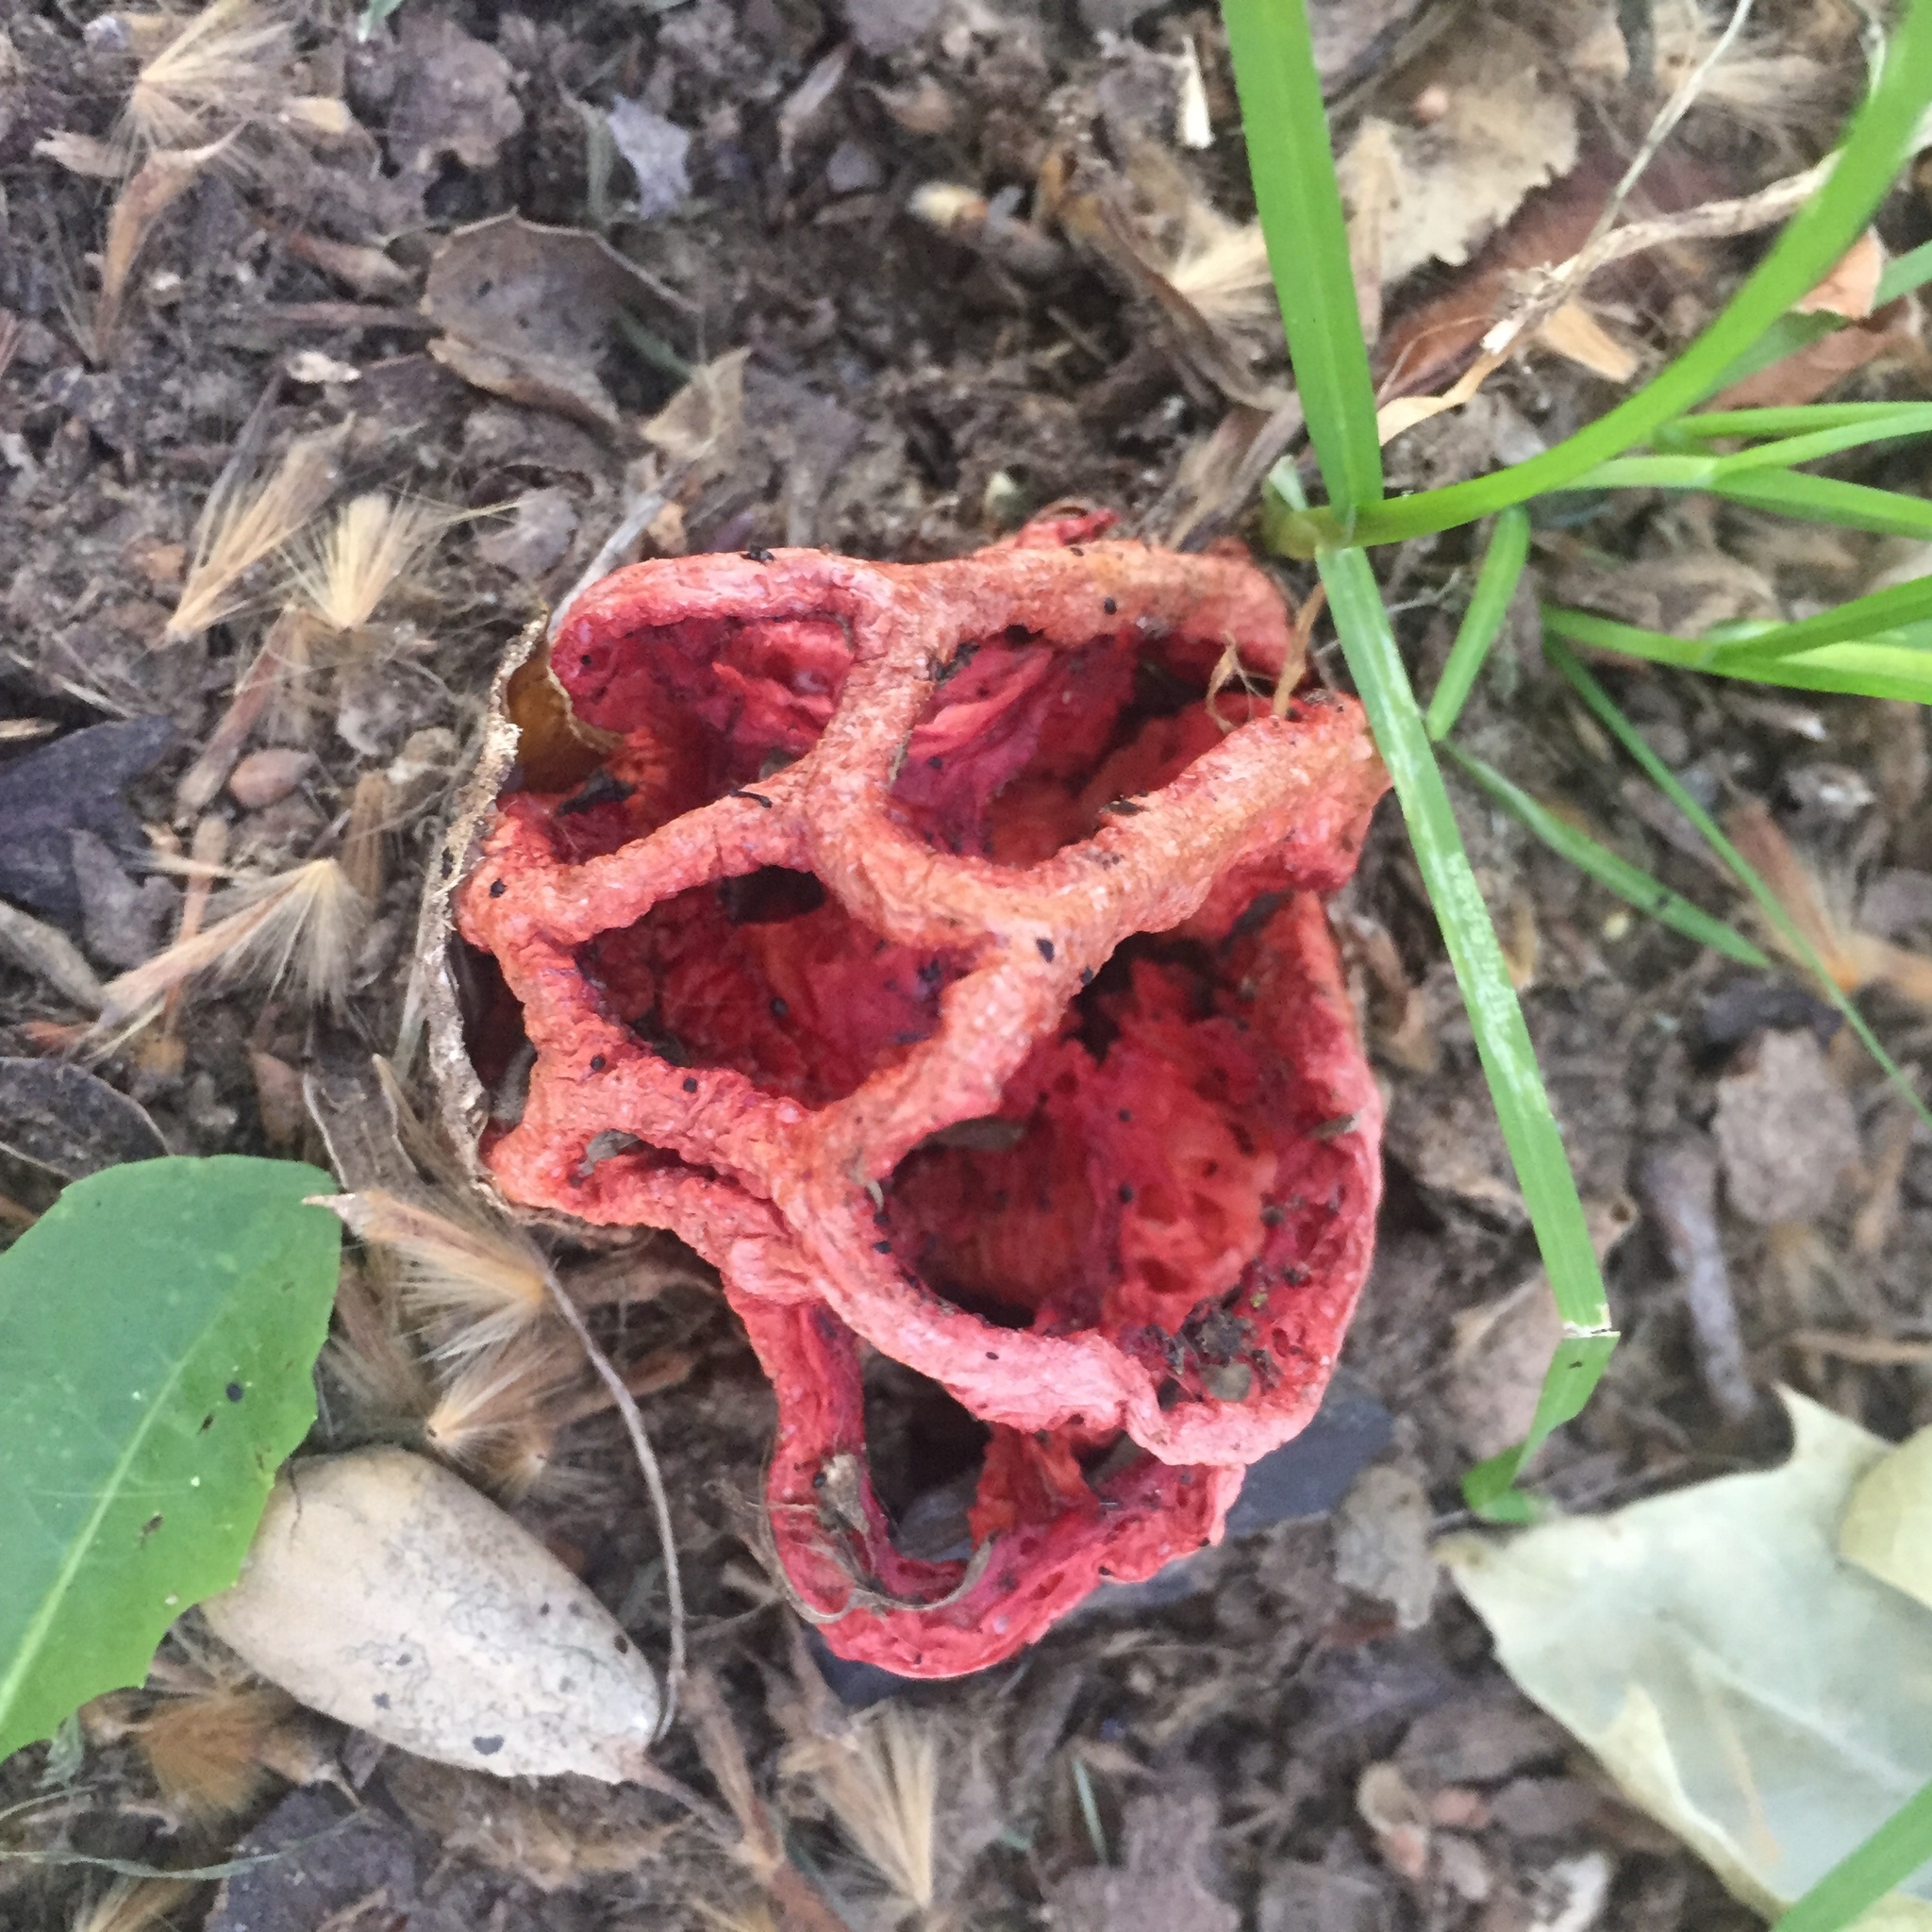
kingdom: Fungi
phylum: Basidiomycota
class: Agaricomycetes
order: Phallales
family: Phallaceae
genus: Clathrus
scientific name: Clathrus ruber
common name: Red cage
